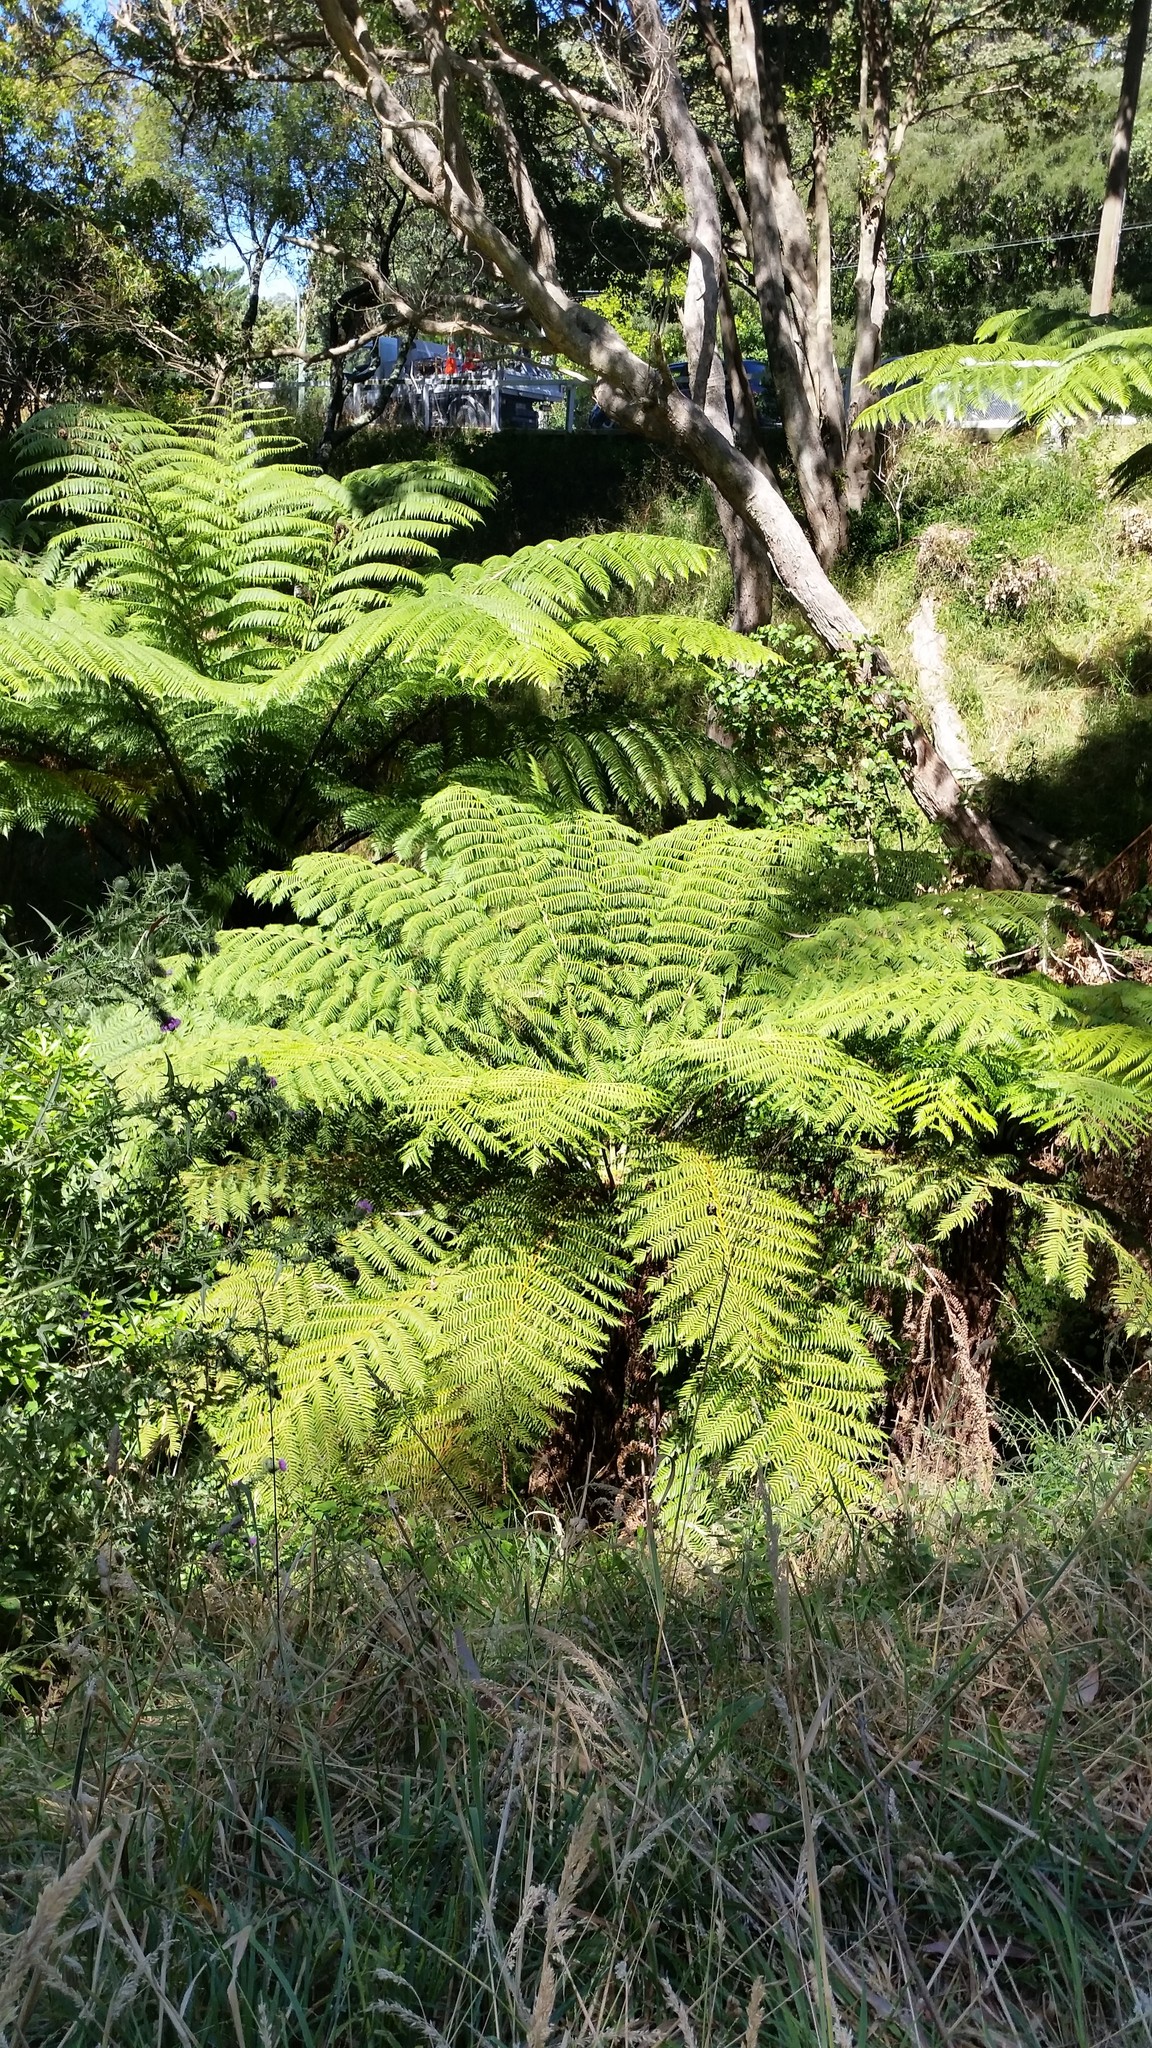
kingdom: Plantae
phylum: Tracheophyta
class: Polypodiopsida
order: Cyatheales
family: Cyatheaceae
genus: Sphaeropteris
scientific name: Sphaeropteris medullaris
